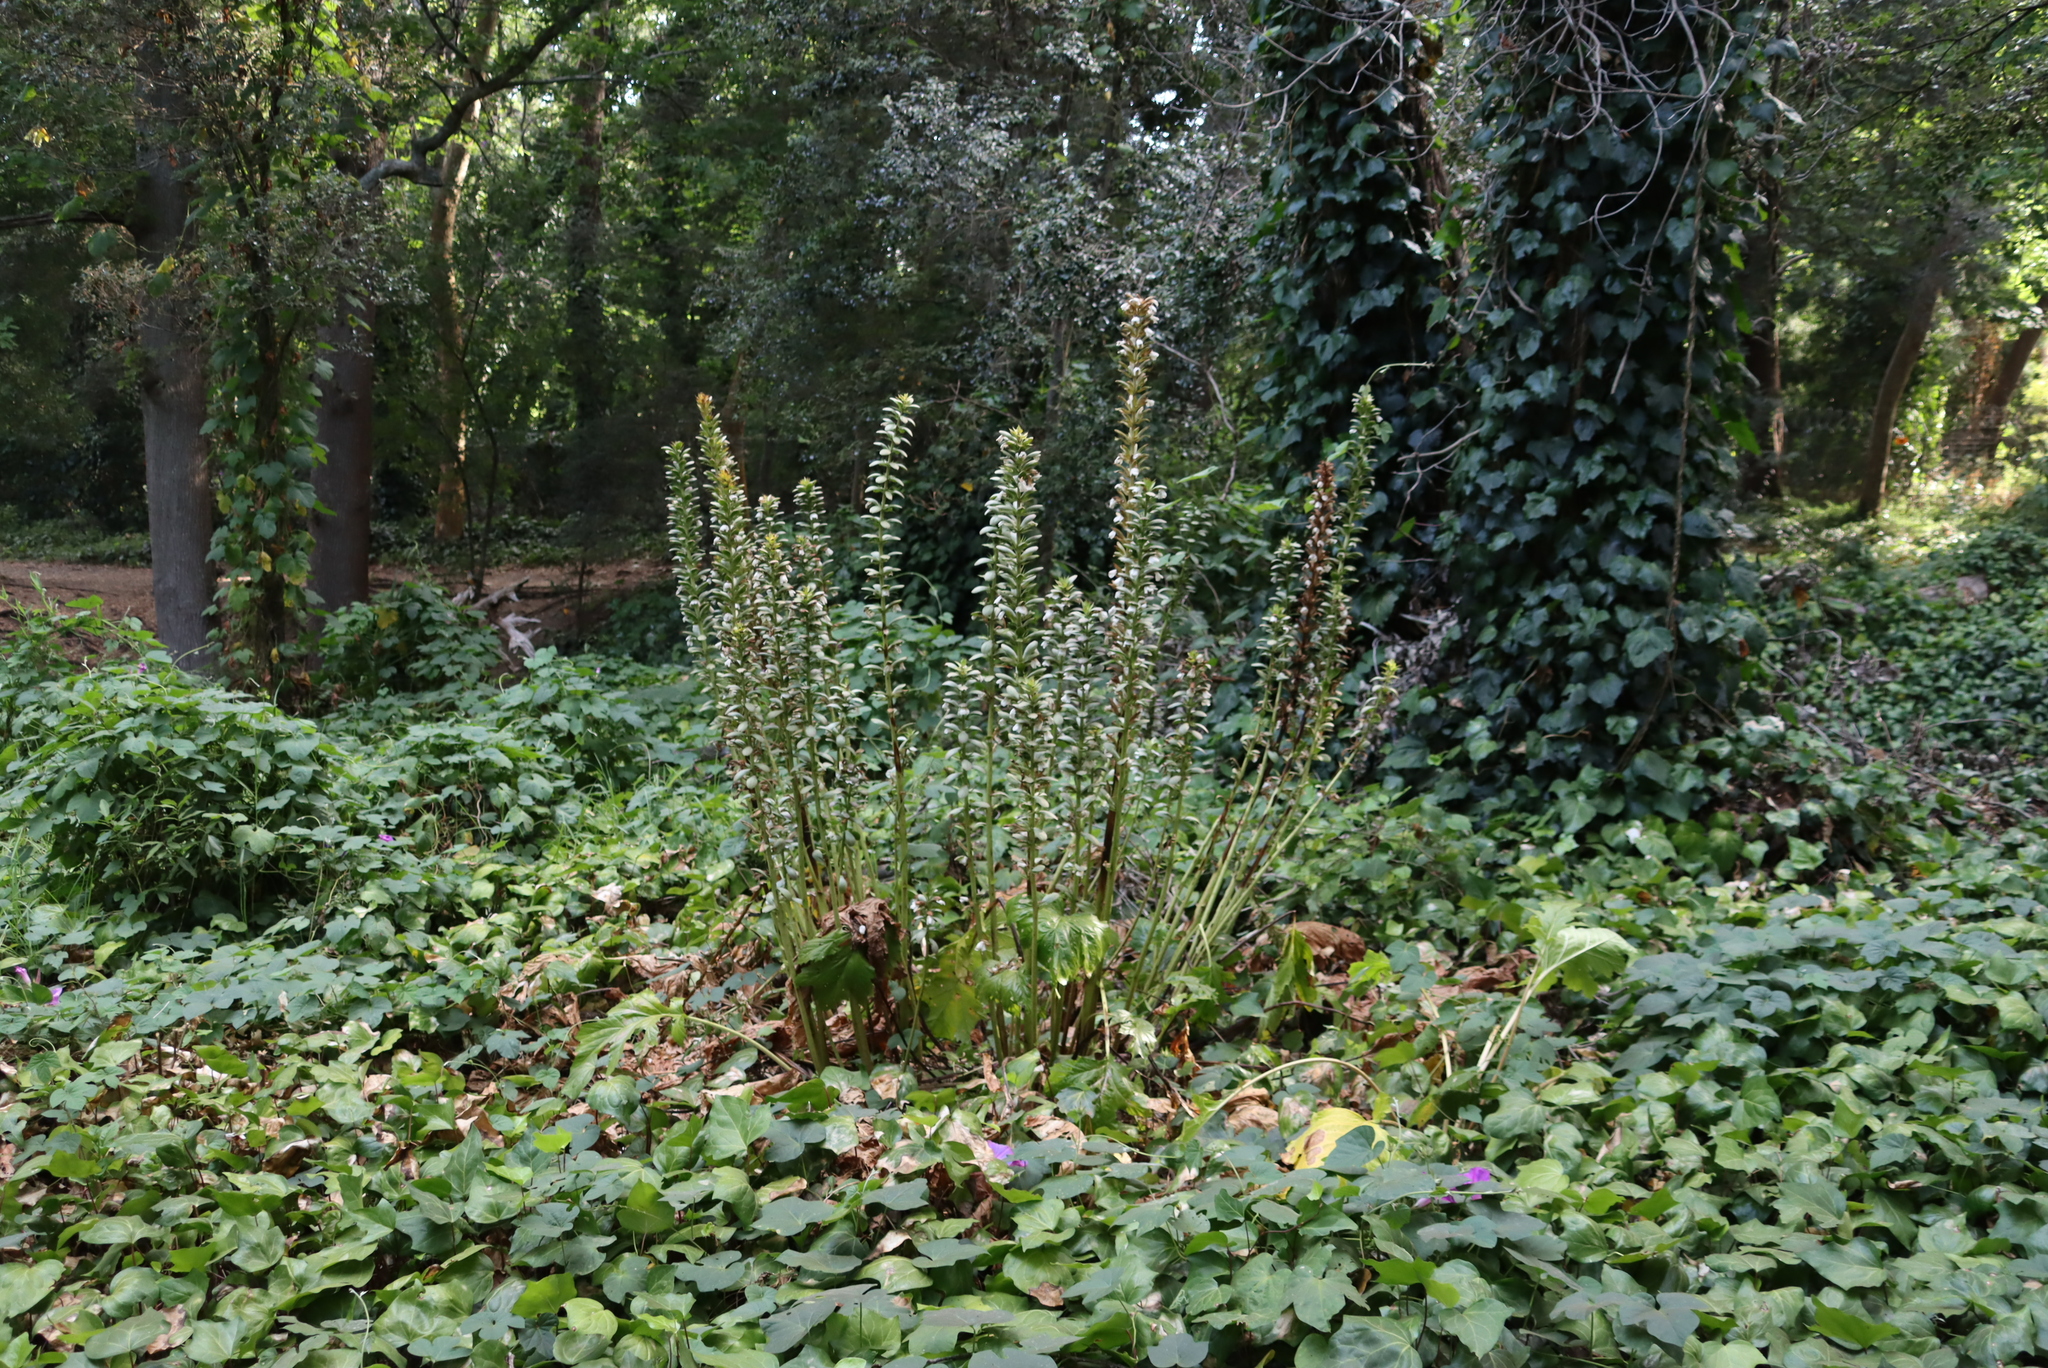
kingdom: Plantae
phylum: Tracheophyta
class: Magnoliopsida
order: Lamiales
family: Acanthaceae
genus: Acanthus
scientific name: Acanthus mollis
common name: Bear's-breech
